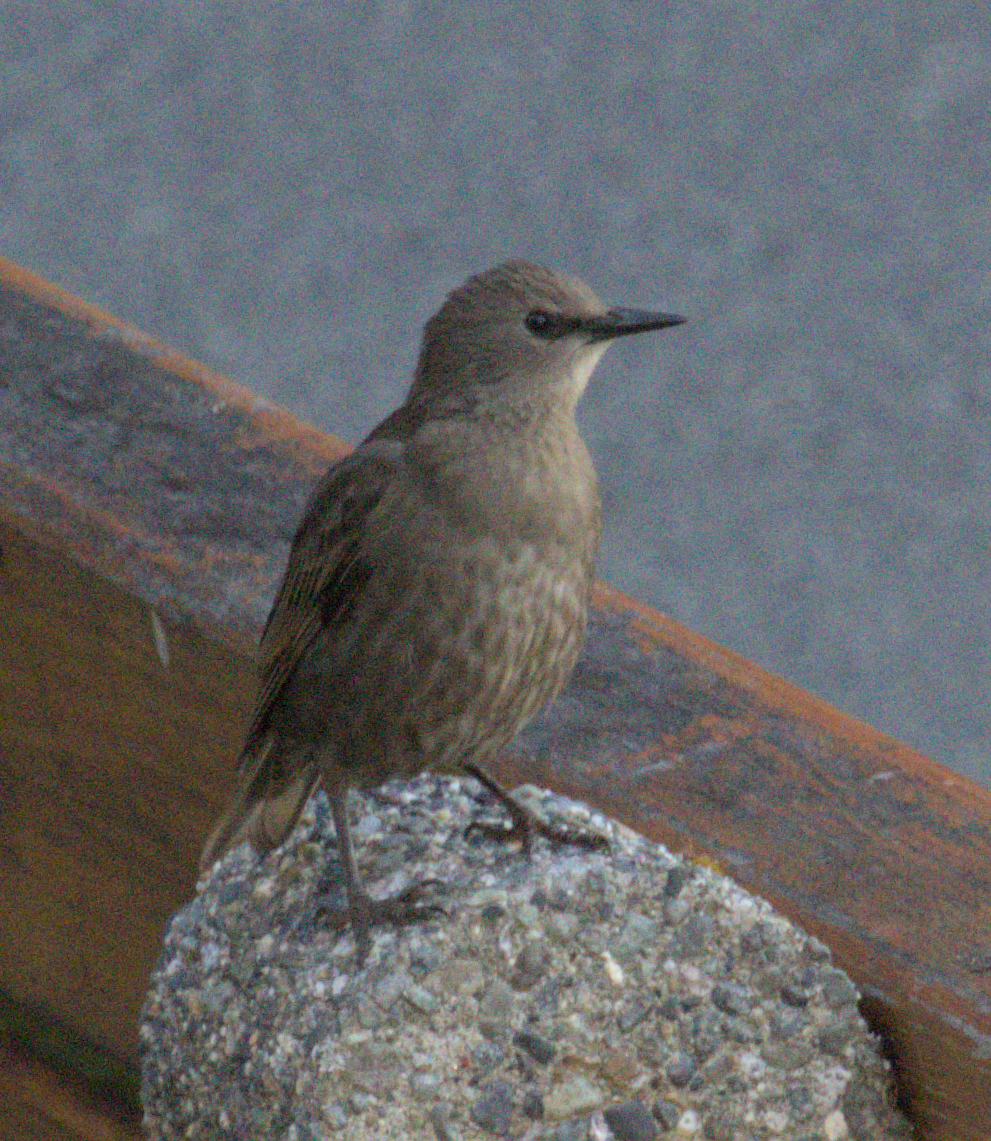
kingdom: Animalia
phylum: Chordata
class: Aves
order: Passeriformes
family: Sturnidae
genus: Sturnus
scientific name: Sturnus vulgaris
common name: Common starling
